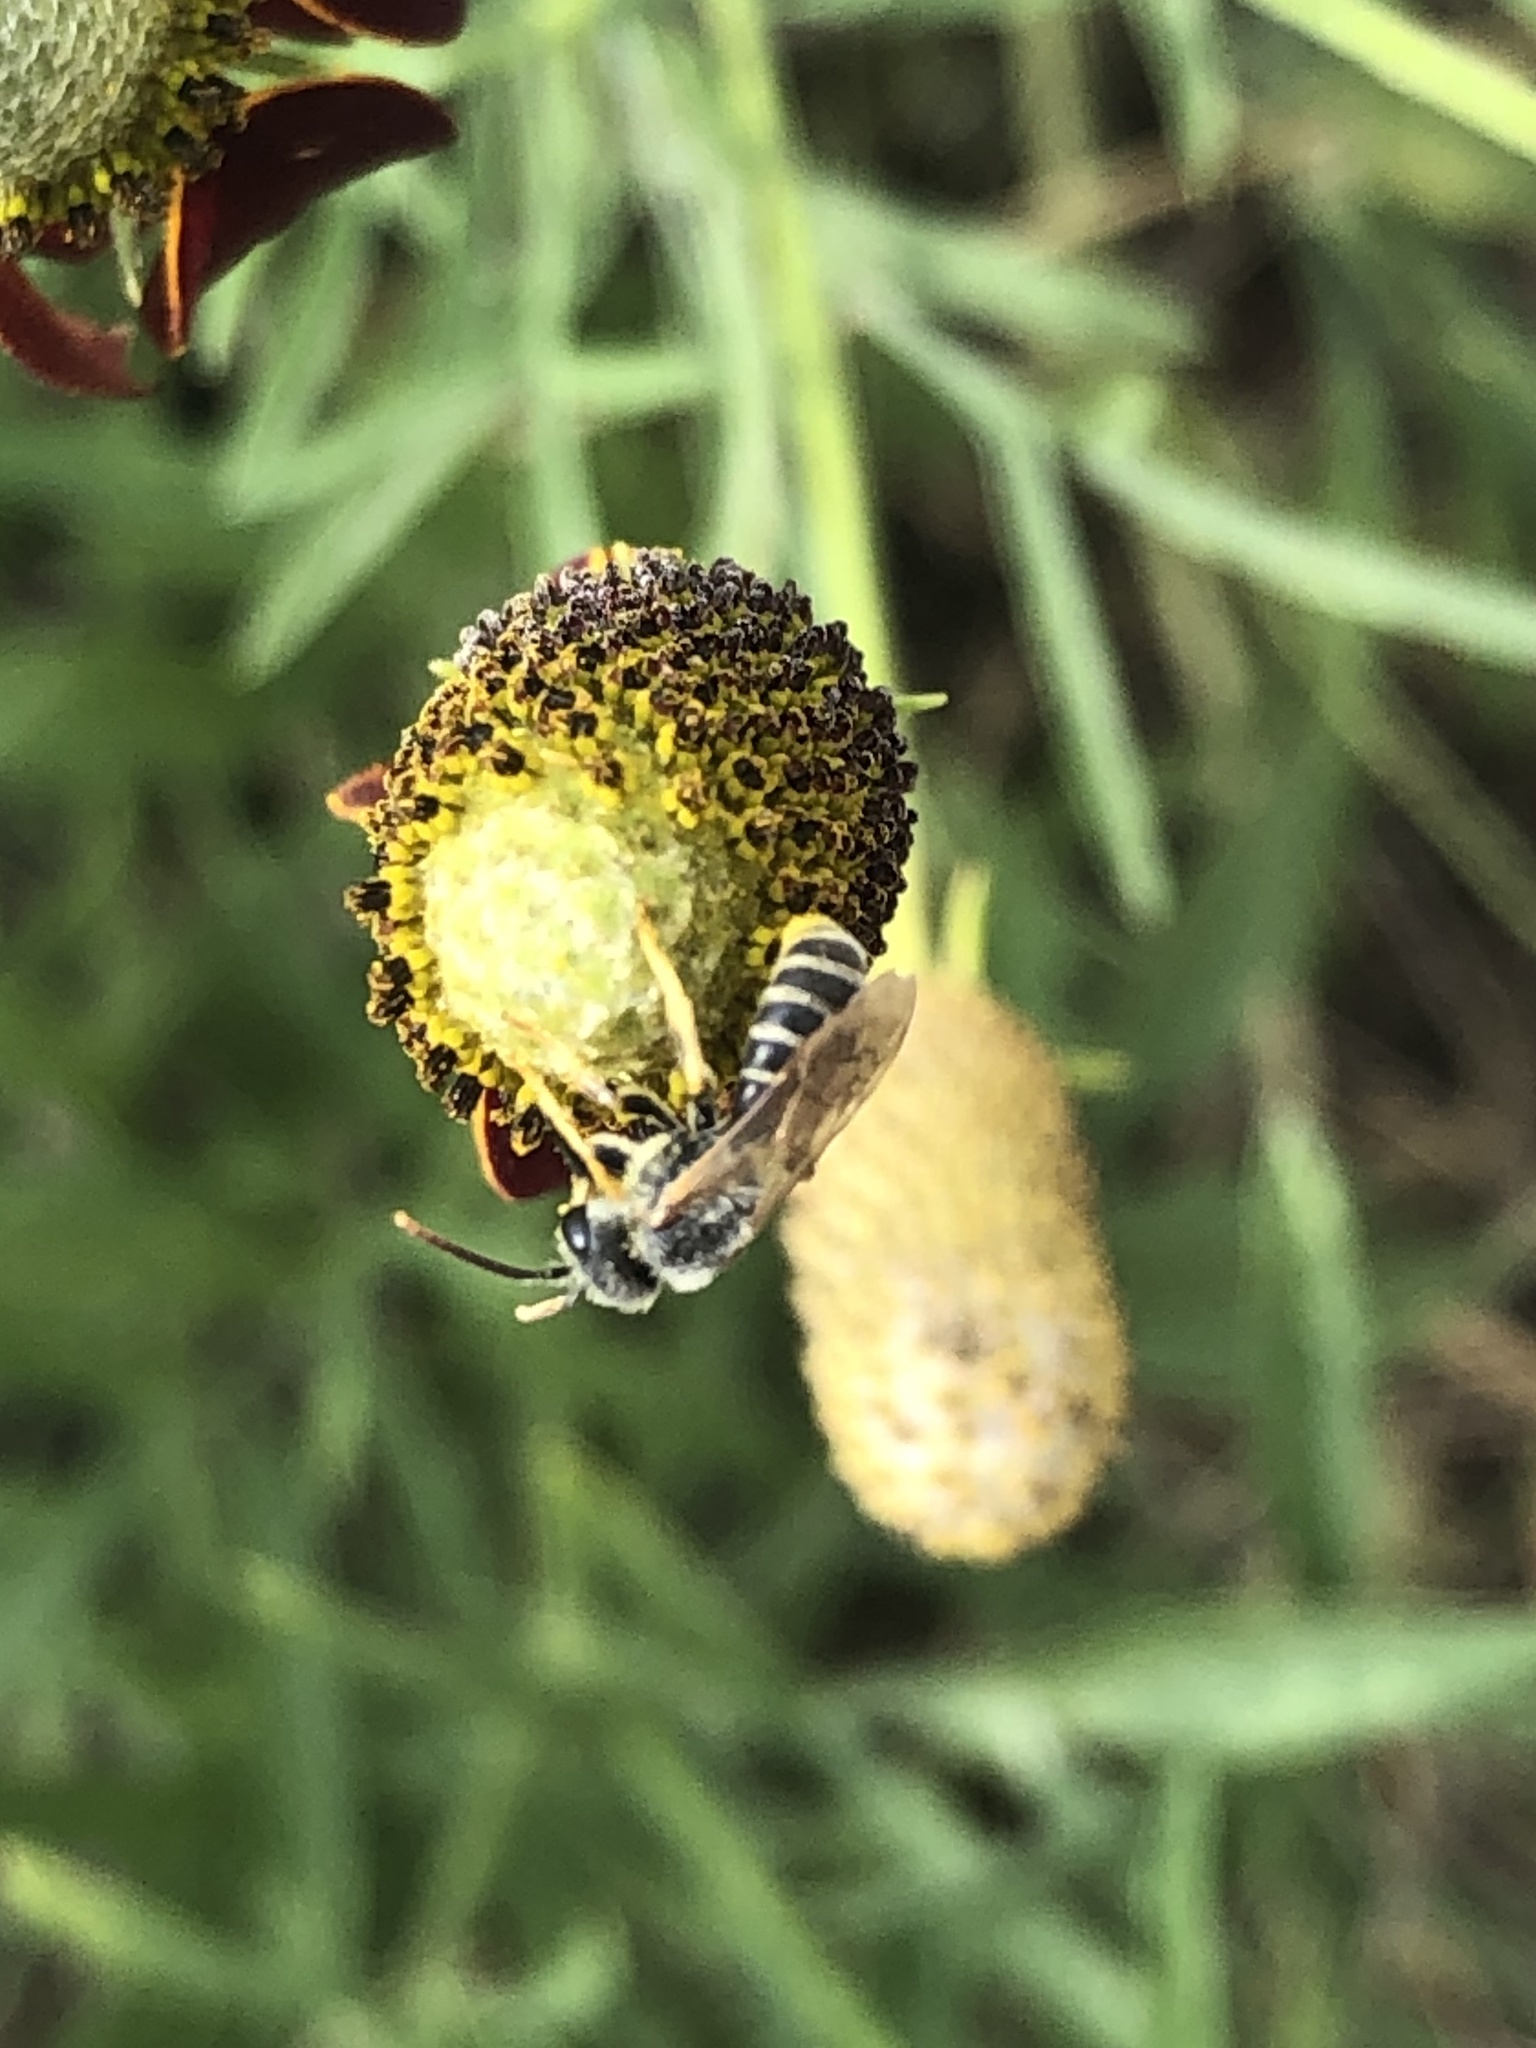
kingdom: Animalia
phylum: Arthropoda
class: Insecta
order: Hymenoptera
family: Halictidae
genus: Halictus
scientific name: Halictus ligatus
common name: Ligated furrow bee
